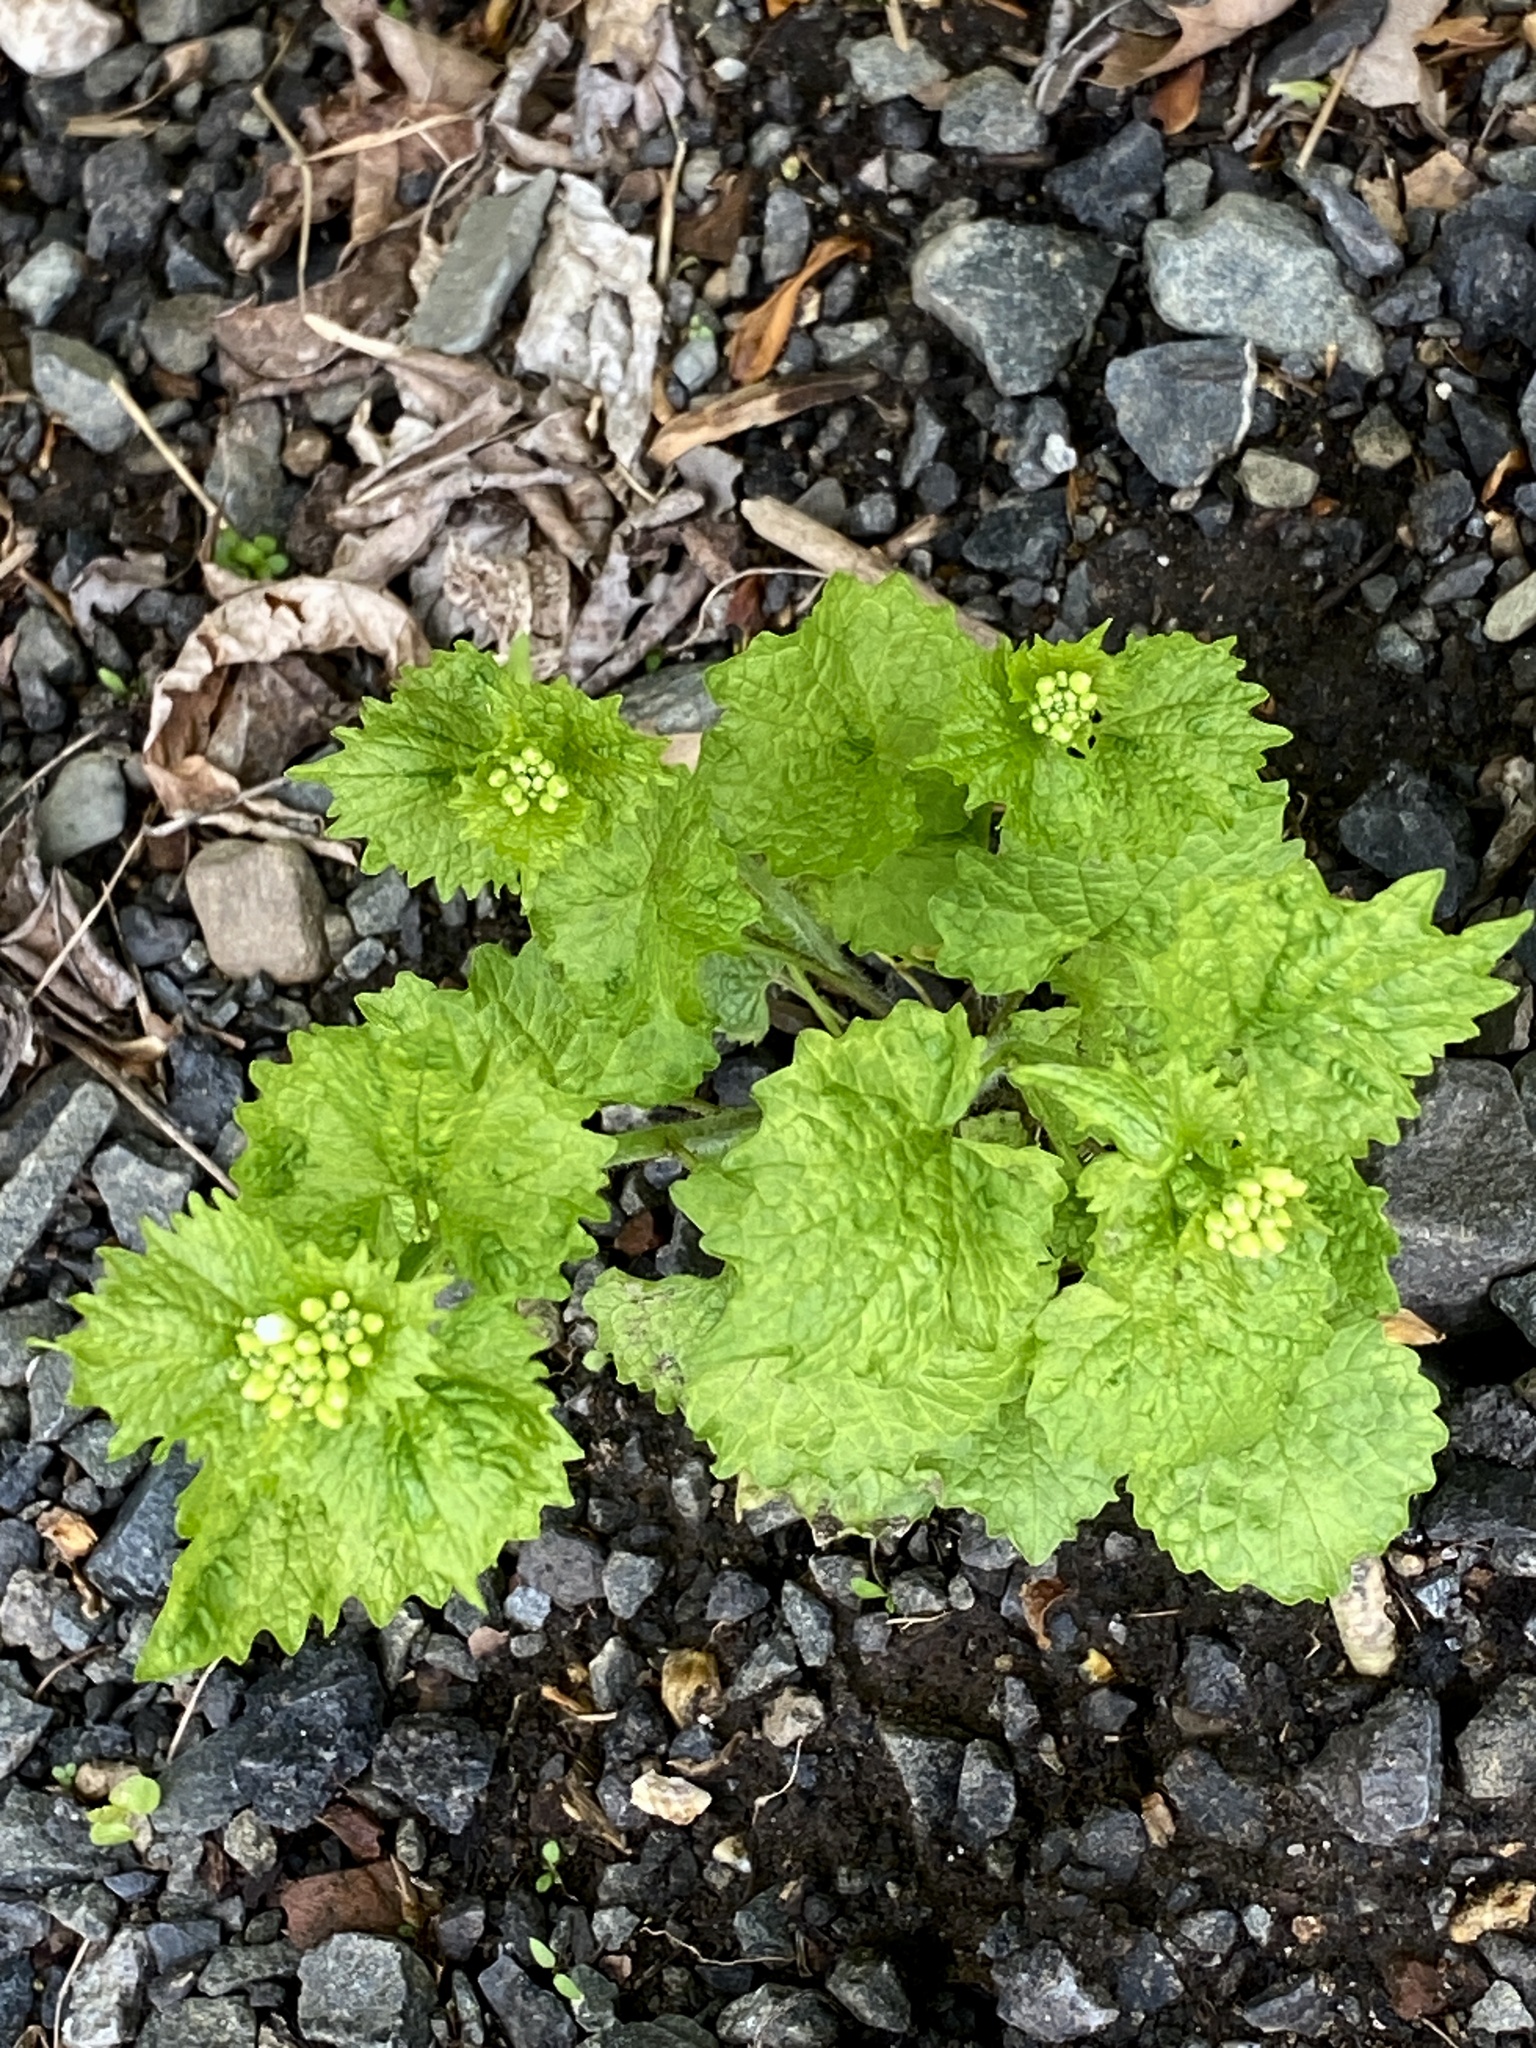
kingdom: Plantae
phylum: Tracheophyta
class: Magnoliopsida
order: Brassicales
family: Brassicaceae
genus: Alliaria
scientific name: Alliaria petiolata
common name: Garlic mustard
